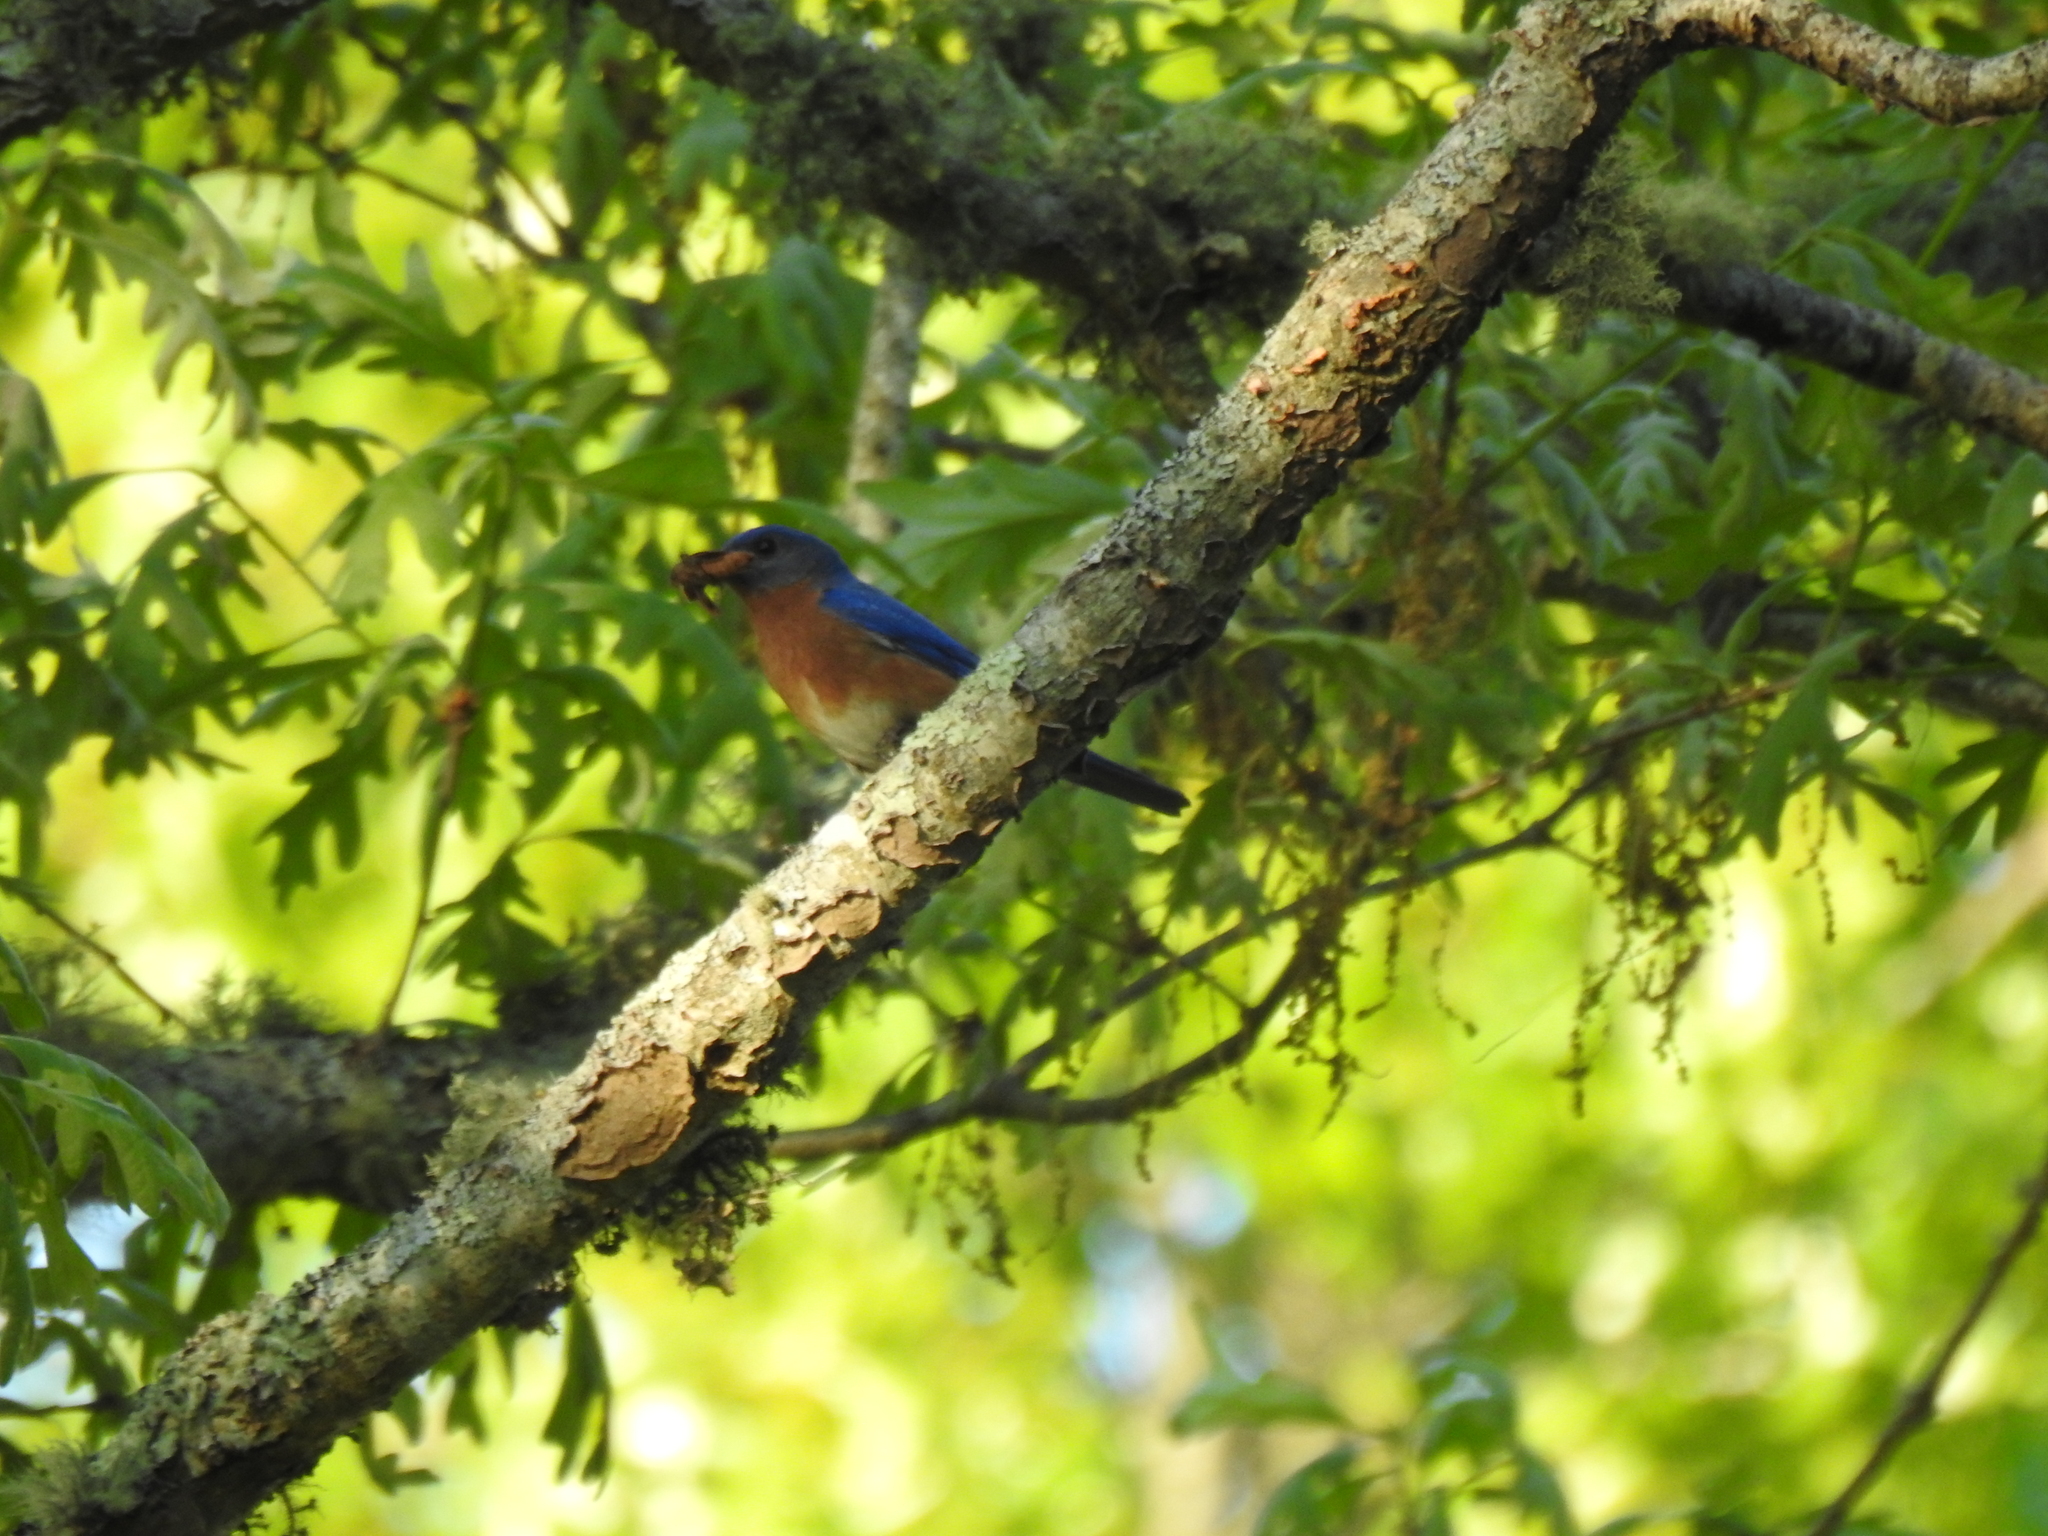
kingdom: Animalia
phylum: Chordata
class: Aves
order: Passeriformes
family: Turdidae
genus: Sialia
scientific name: Sialia sialis
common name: Eastern bluebird
